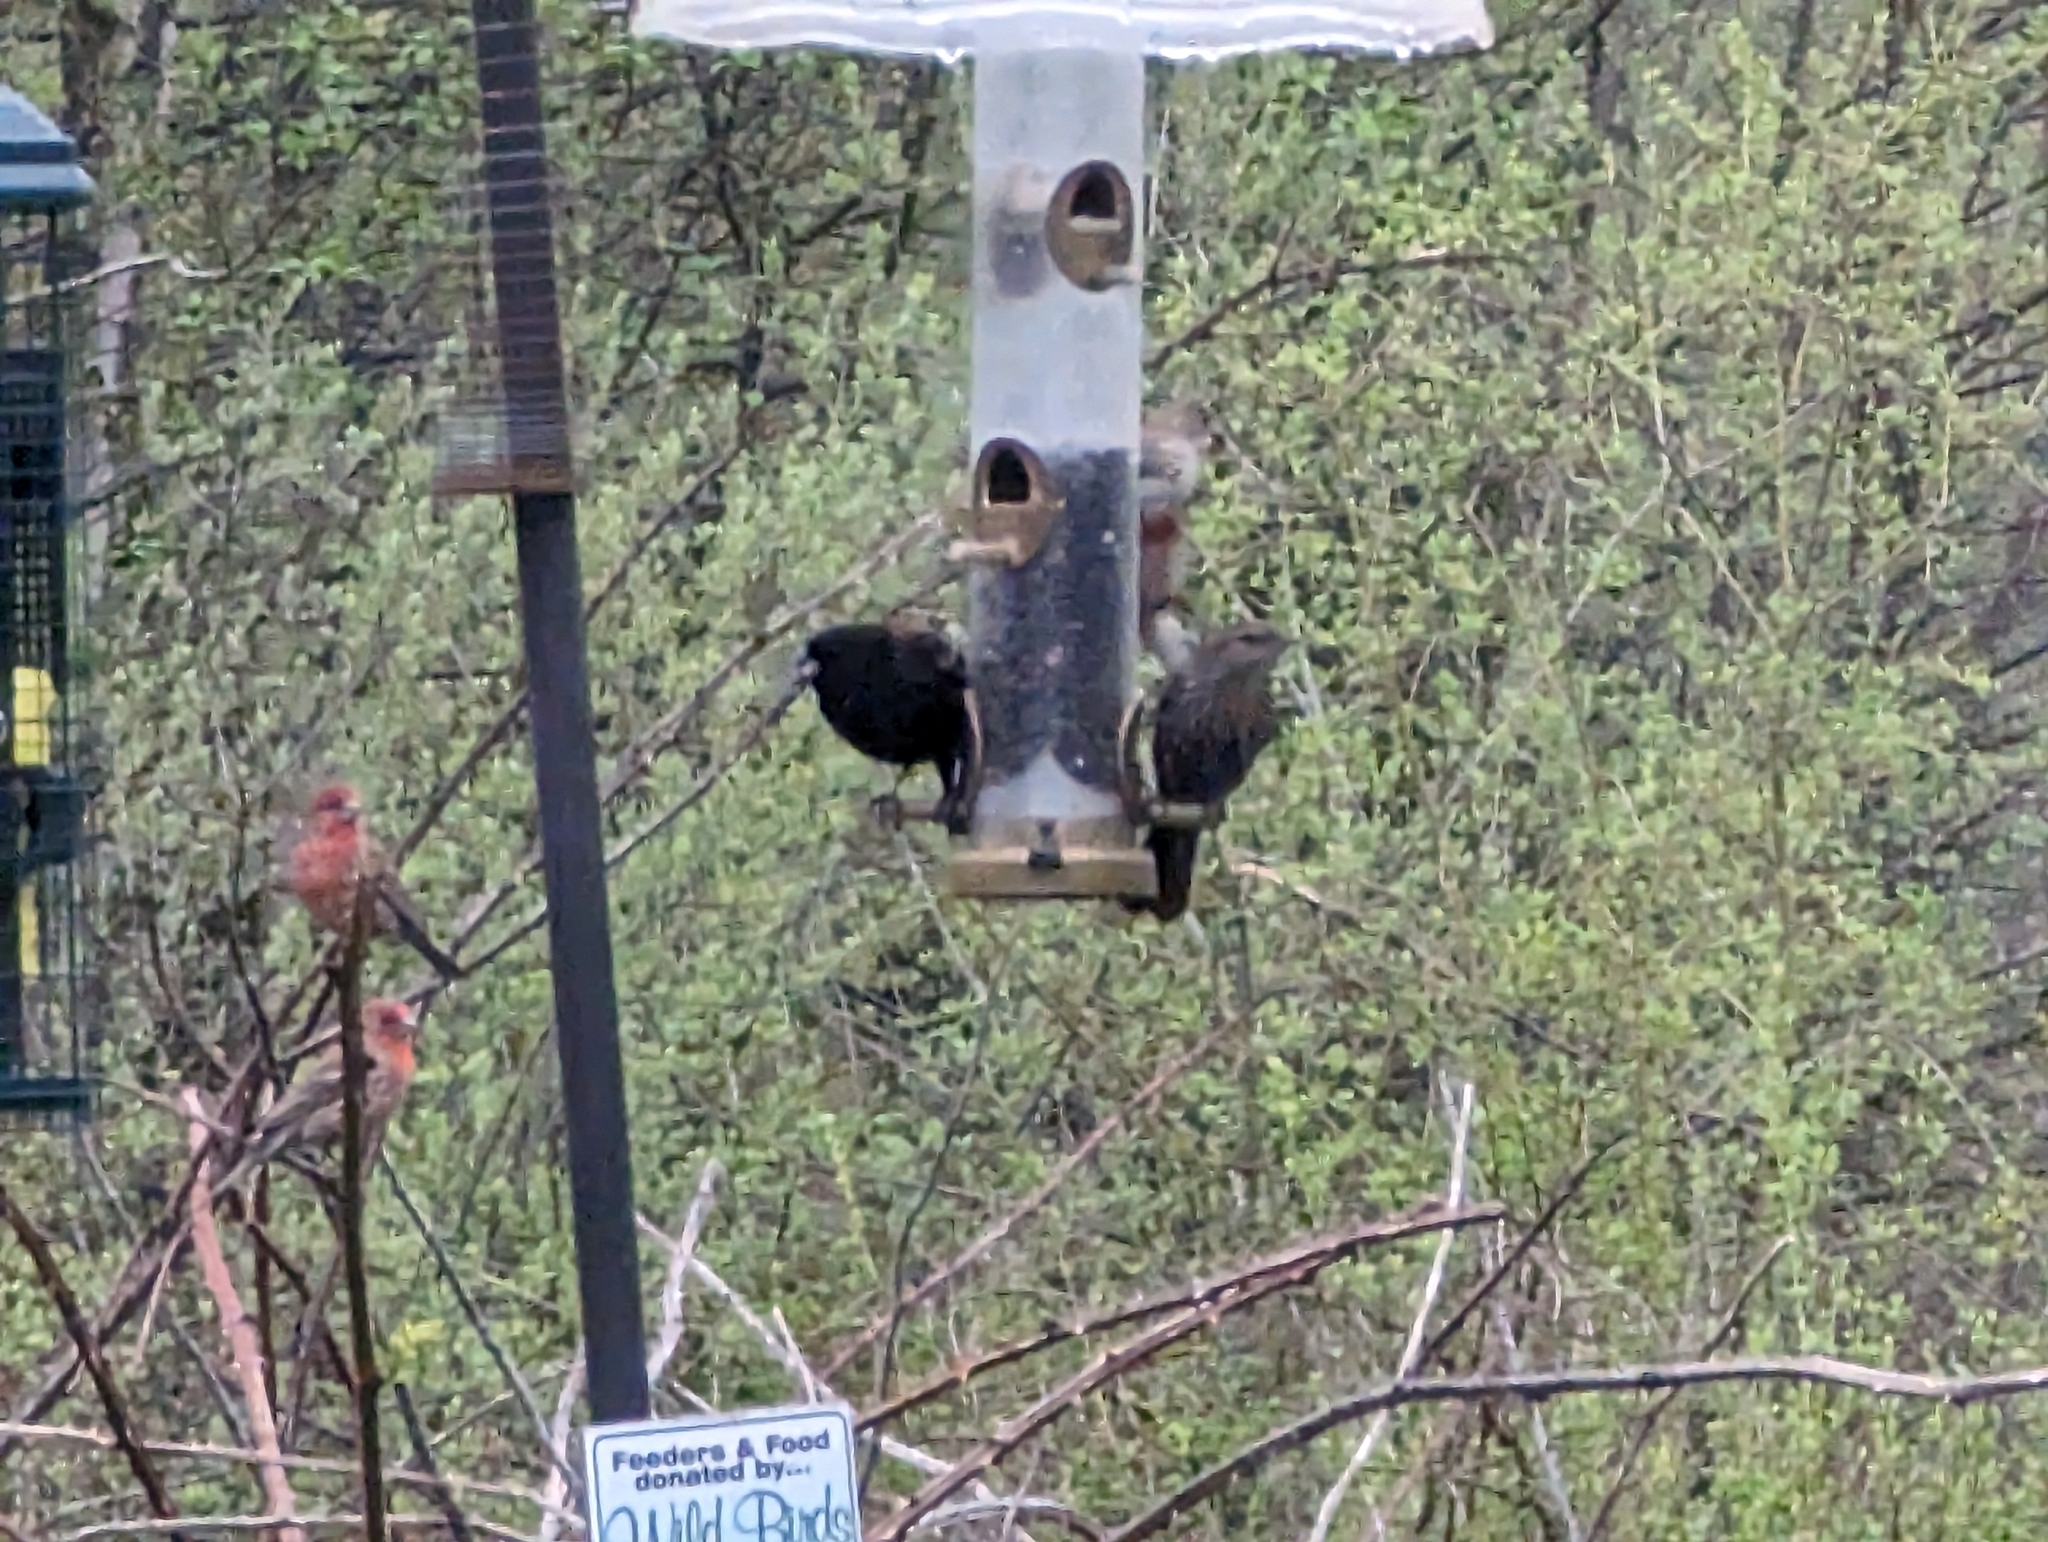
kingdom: Animalia
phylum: Chordata
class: Aves
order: Passeriformes
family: Icteridae
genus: Agelaius
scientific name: Agelaius phoeniceus
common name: Red-winged blackbird
